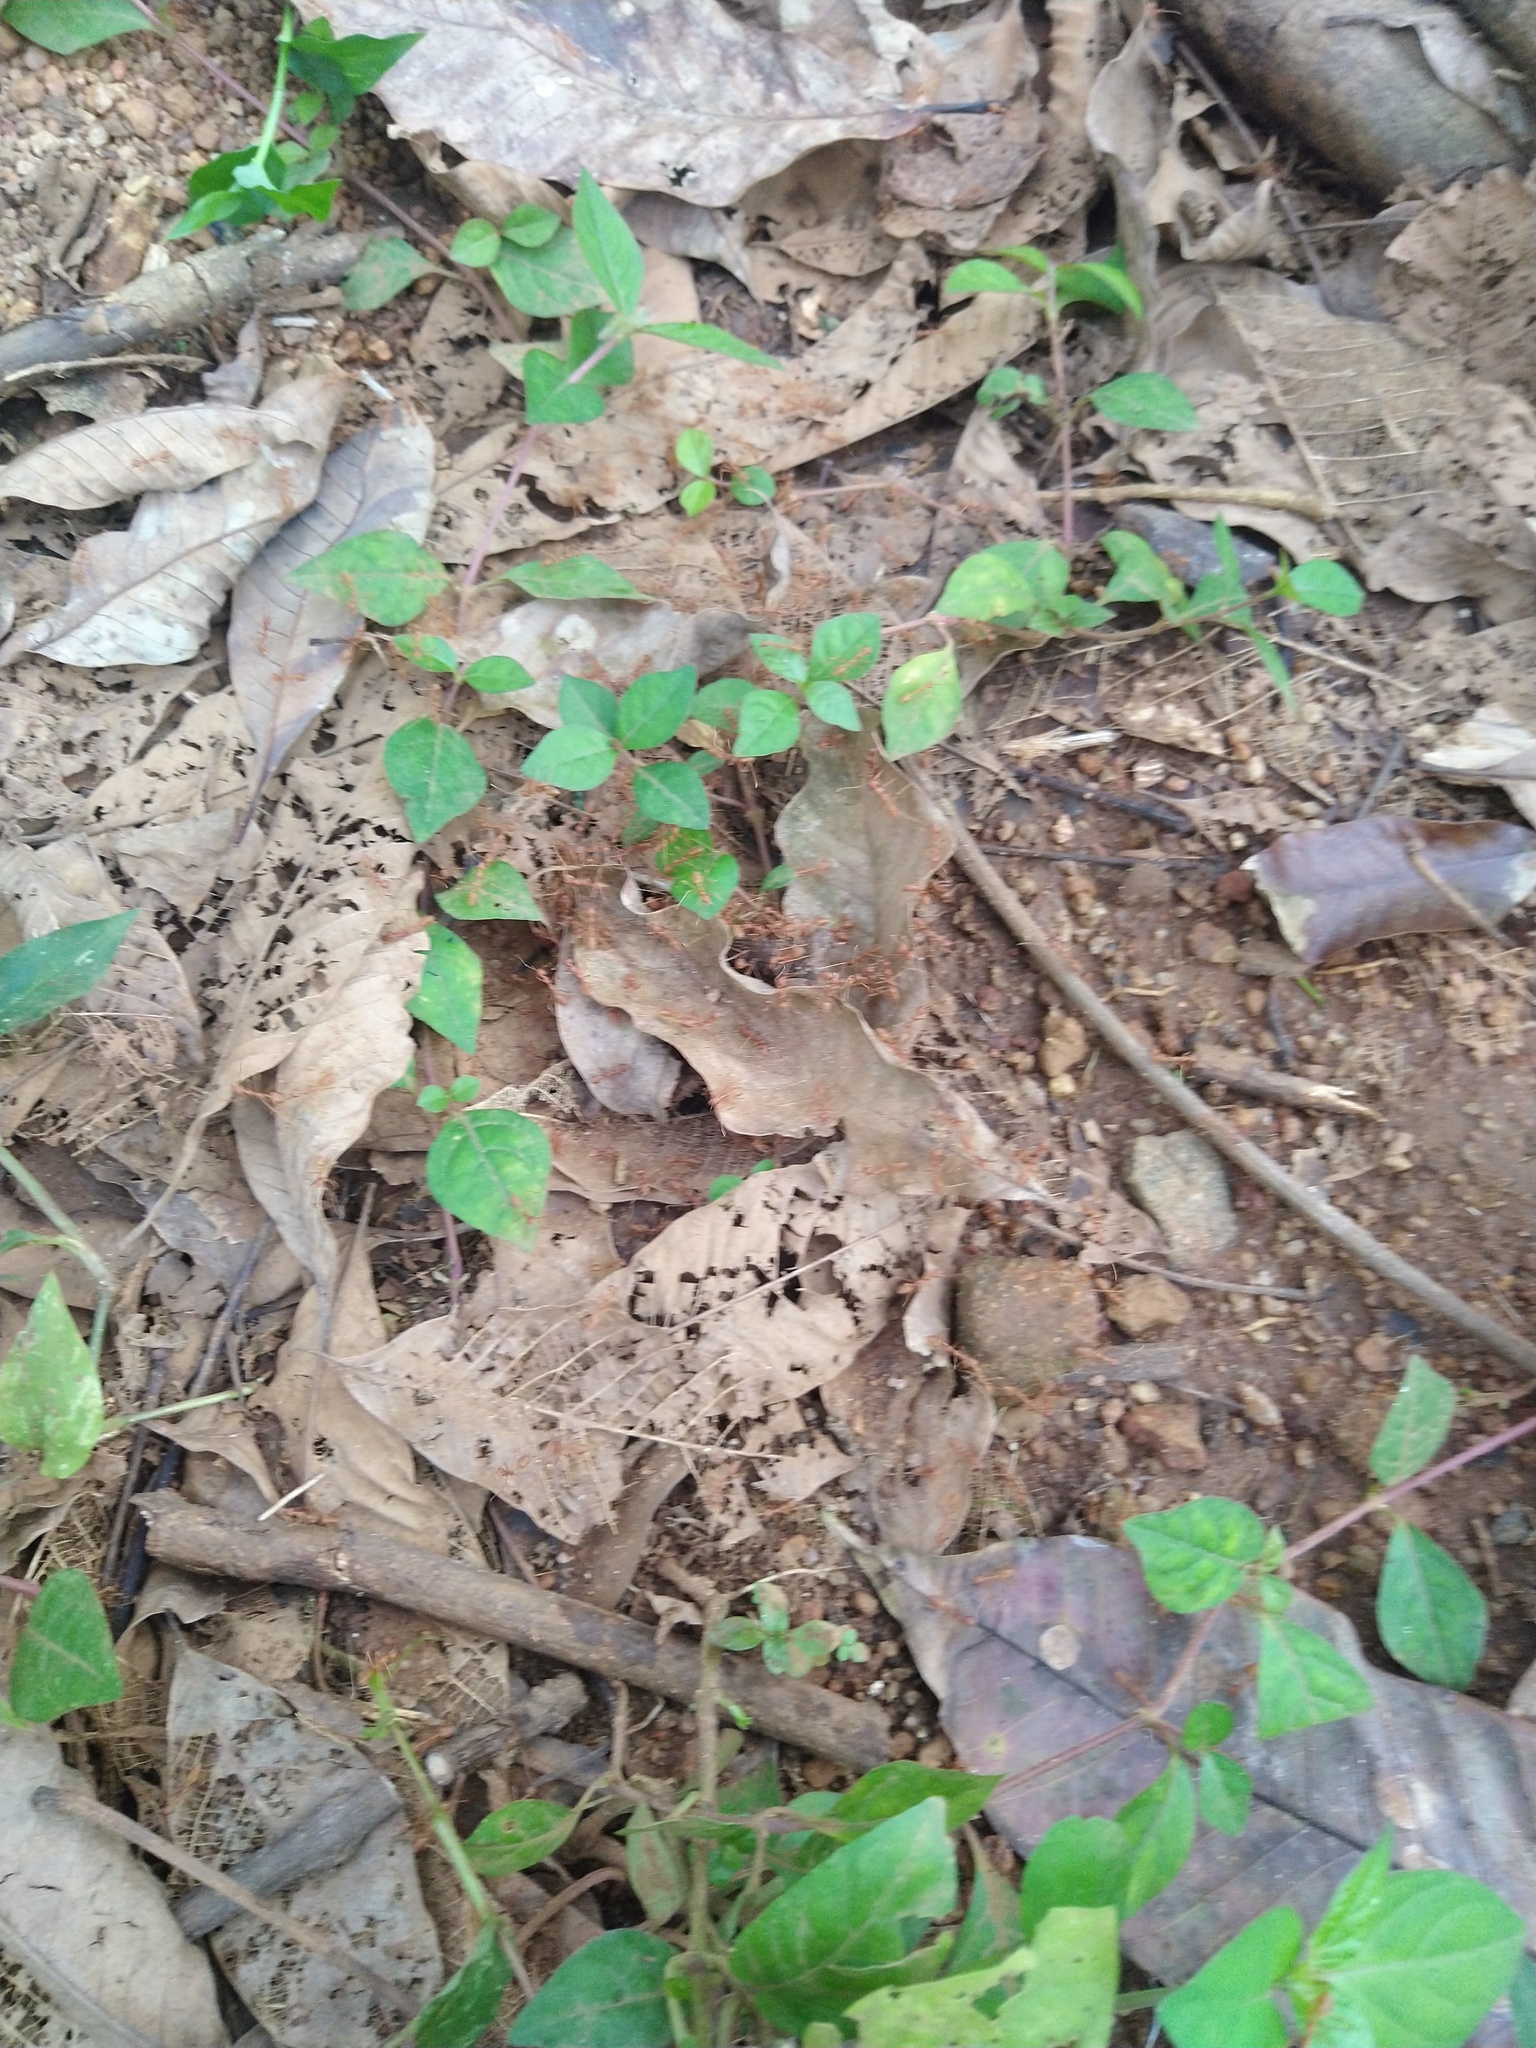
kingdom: Animalia
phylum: Arthropoda
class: Insecta
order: Hymenoptera
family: Formicidae
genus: Oecophylla
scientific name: Oecophylla smaragdina
